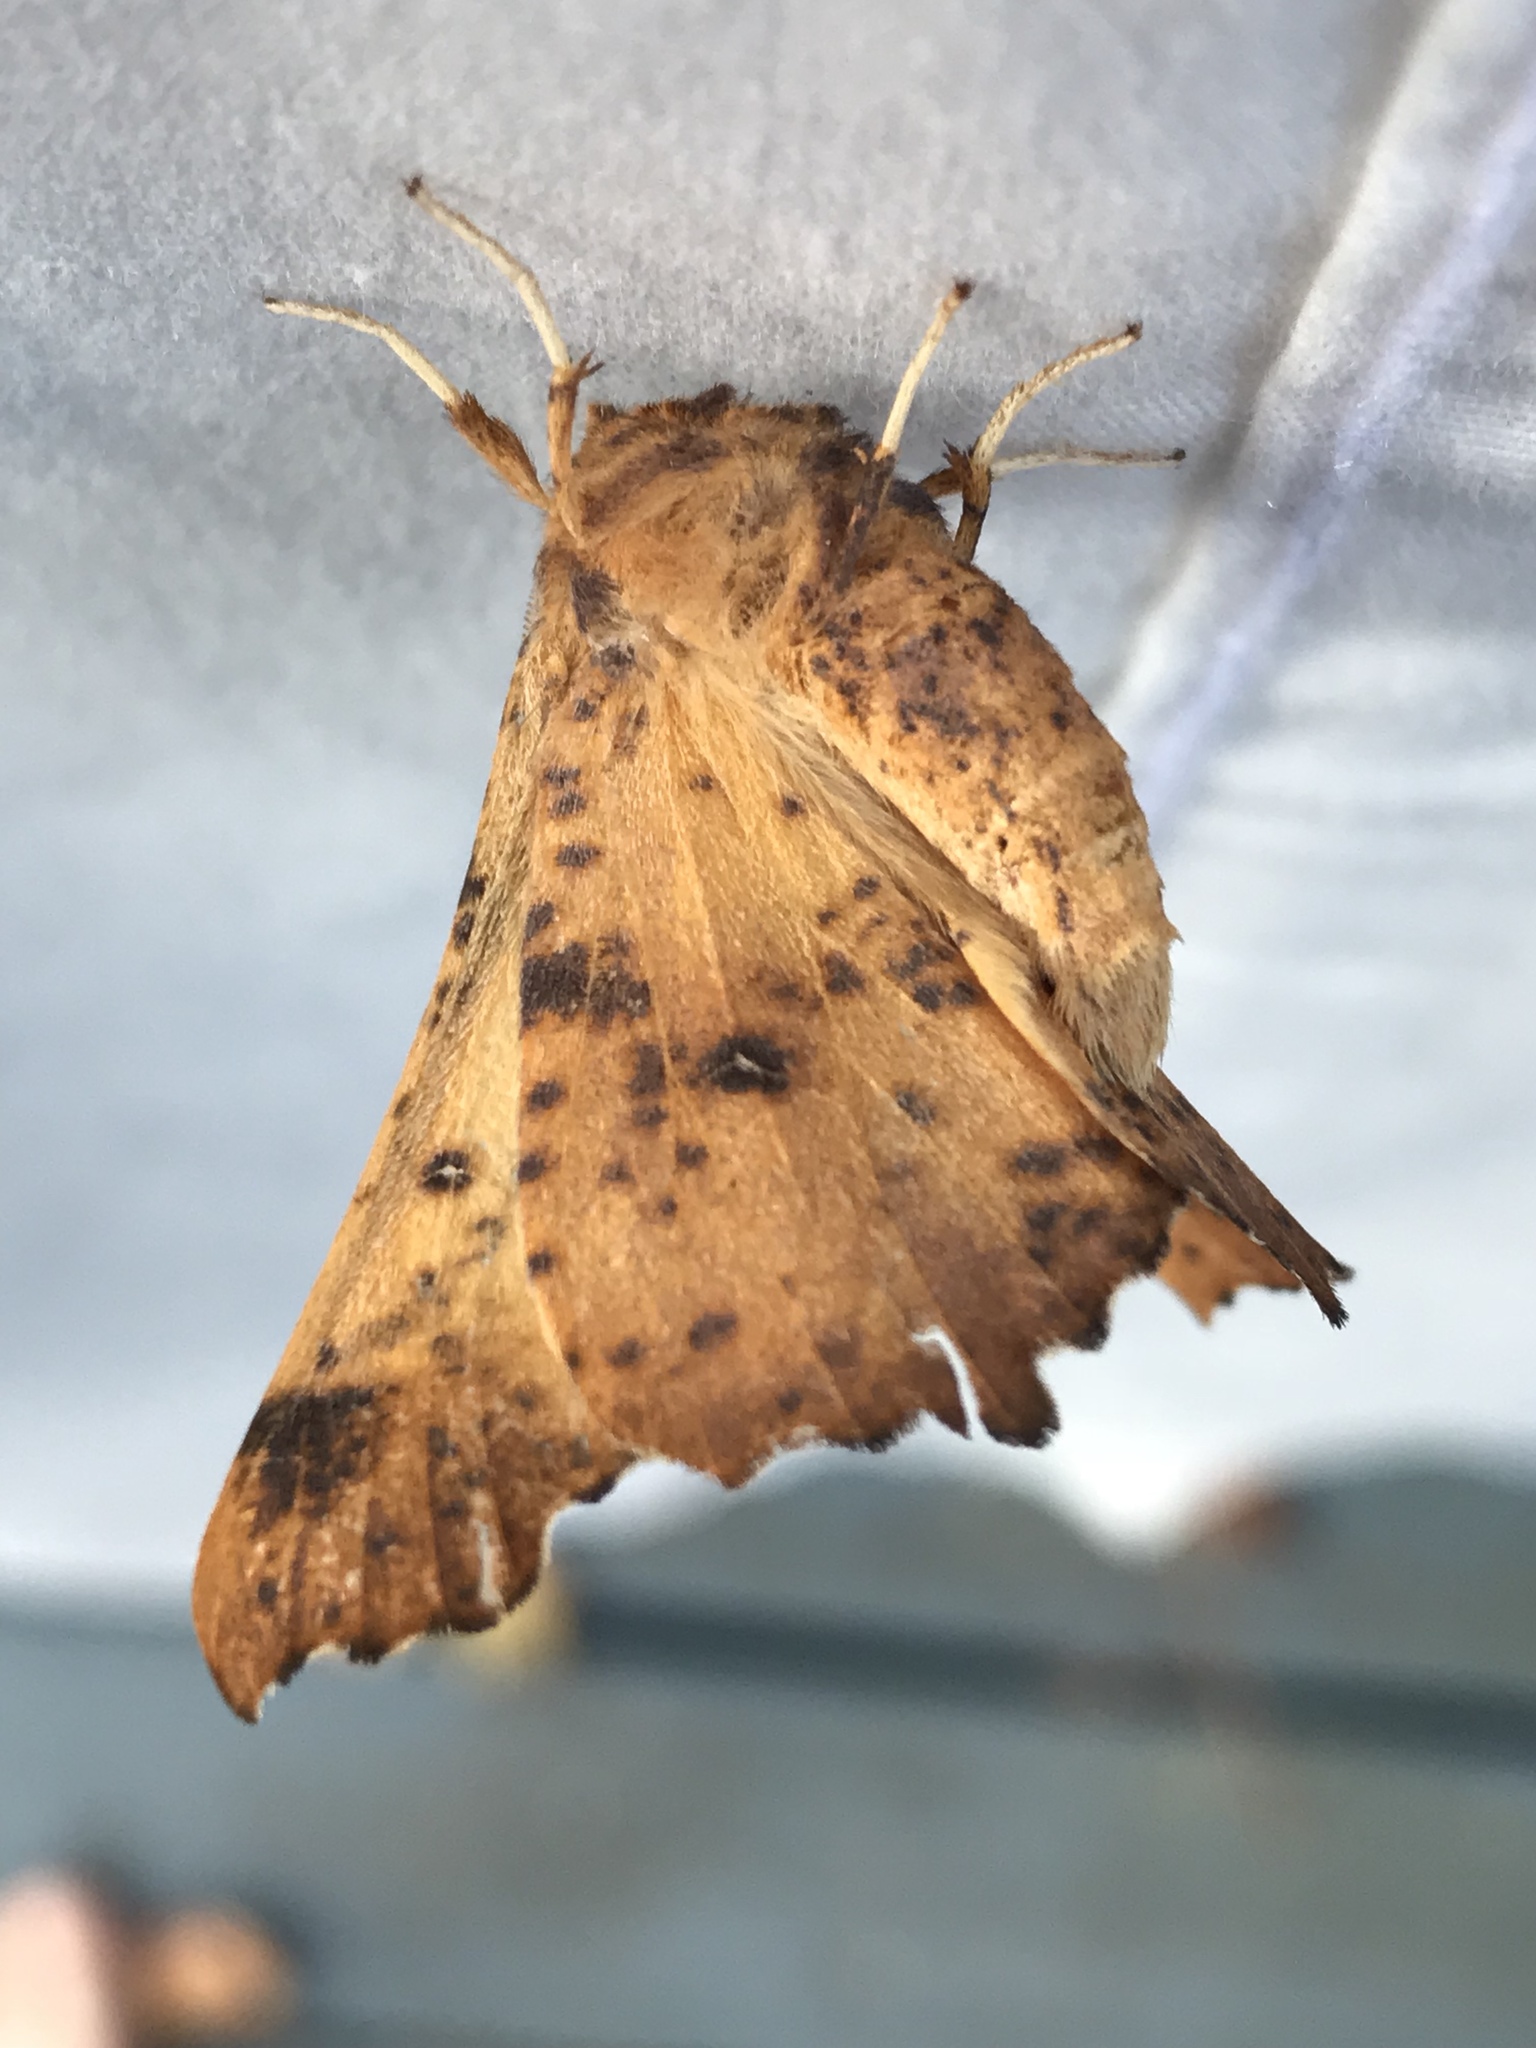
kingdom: Animalia
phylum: Arthropoda
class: Insecta
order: Lepidoptera
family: Geometridae
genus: Ennomos
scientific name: Ennomos magnaria
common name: Maple spanworm
